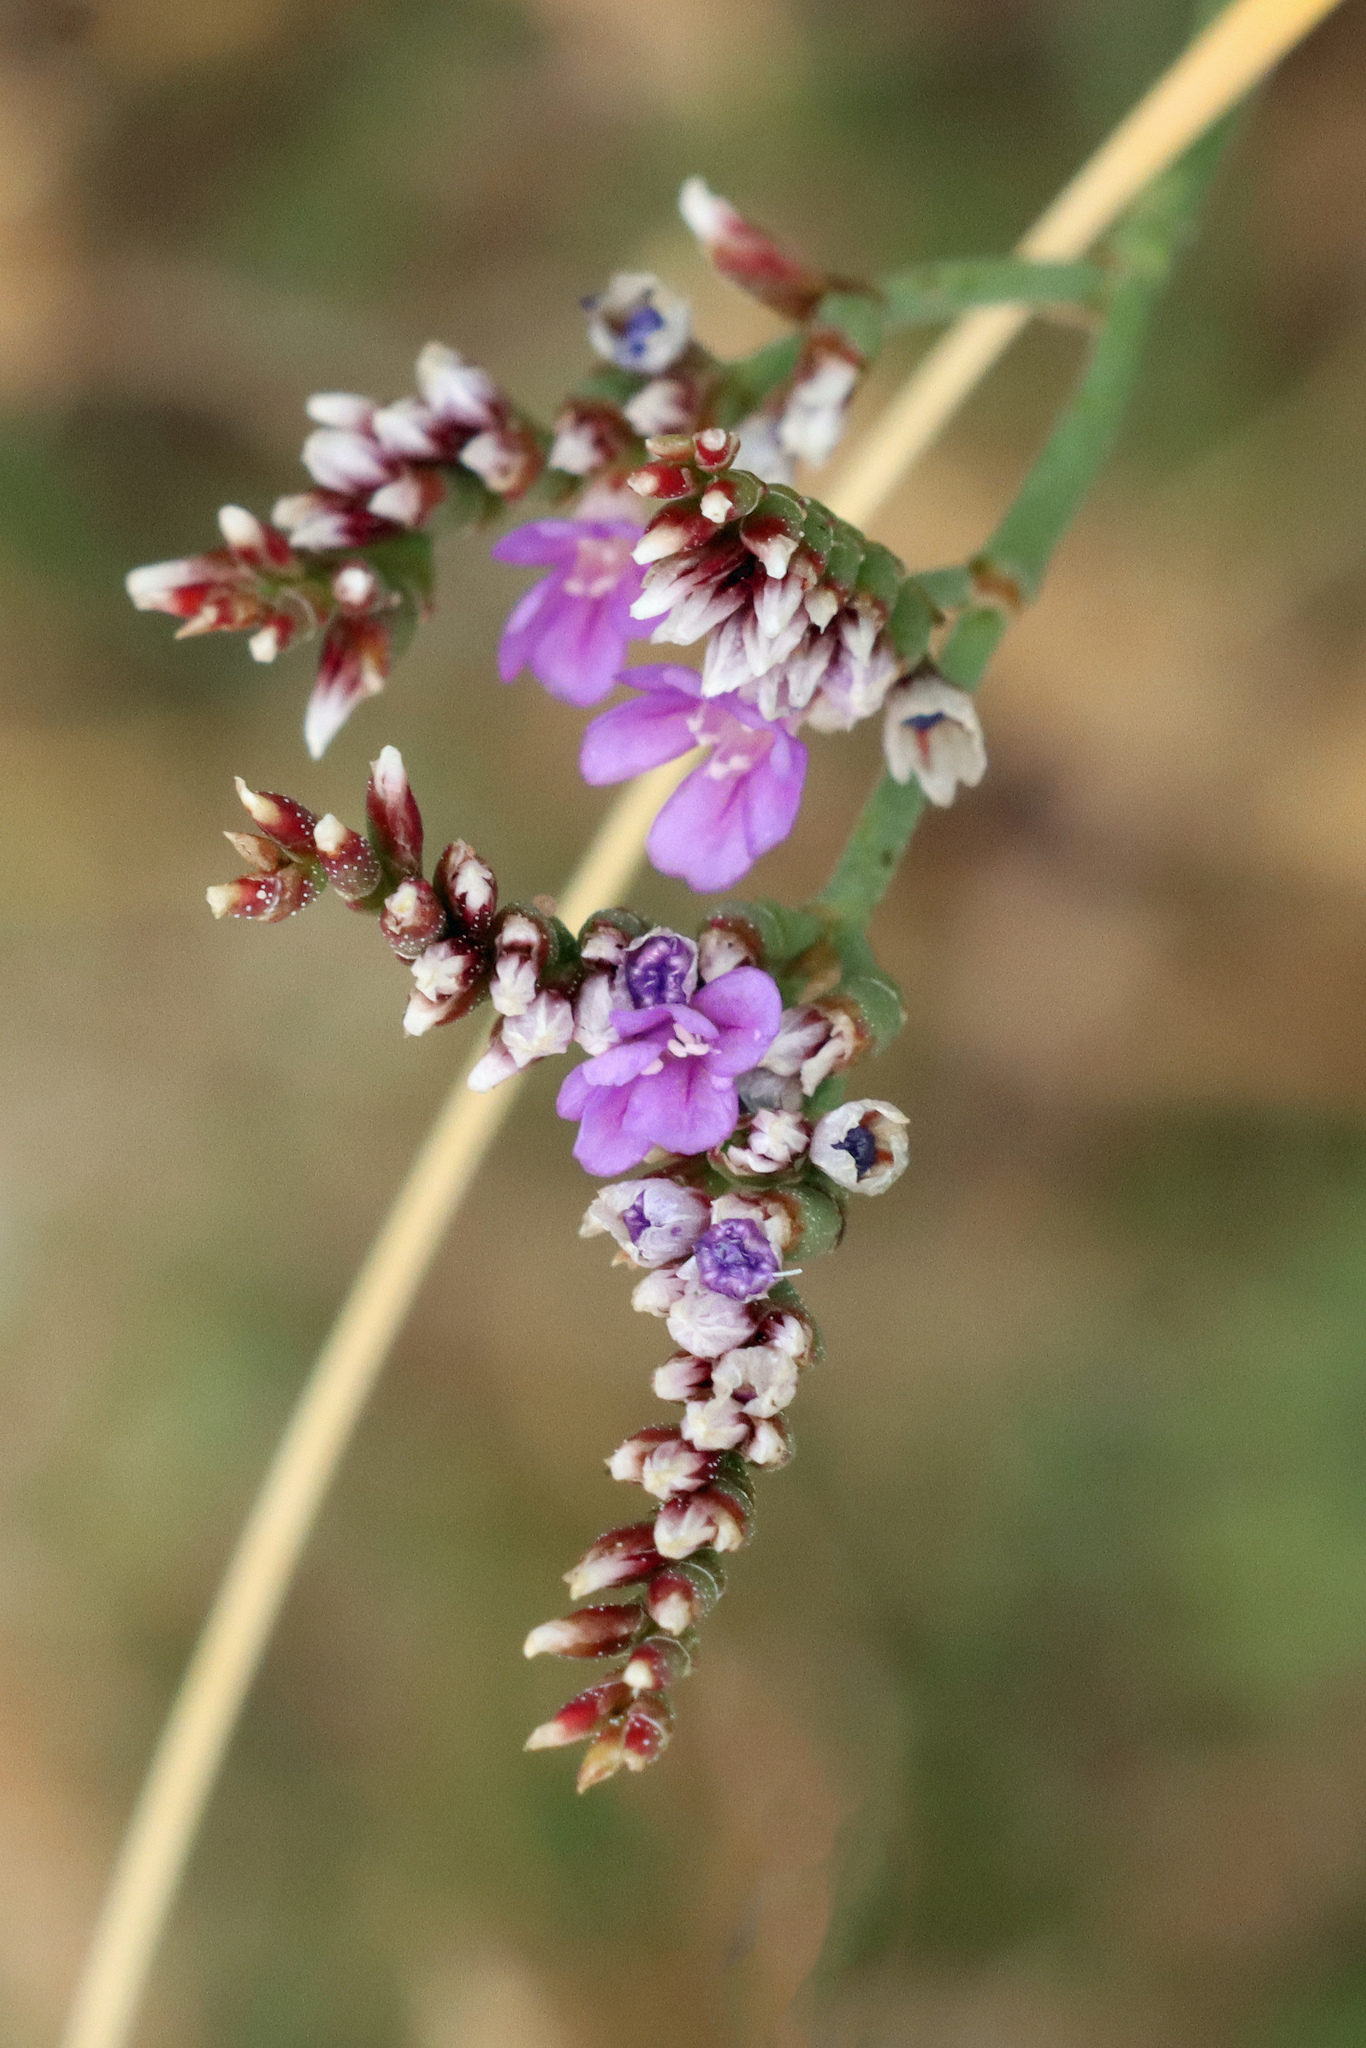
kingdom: Plantae
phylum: Tracheophyta
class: Magnoliopsida
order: Caryophyllales
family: Plumbaginaceae
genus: Limonium
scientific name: Limonium celticum
